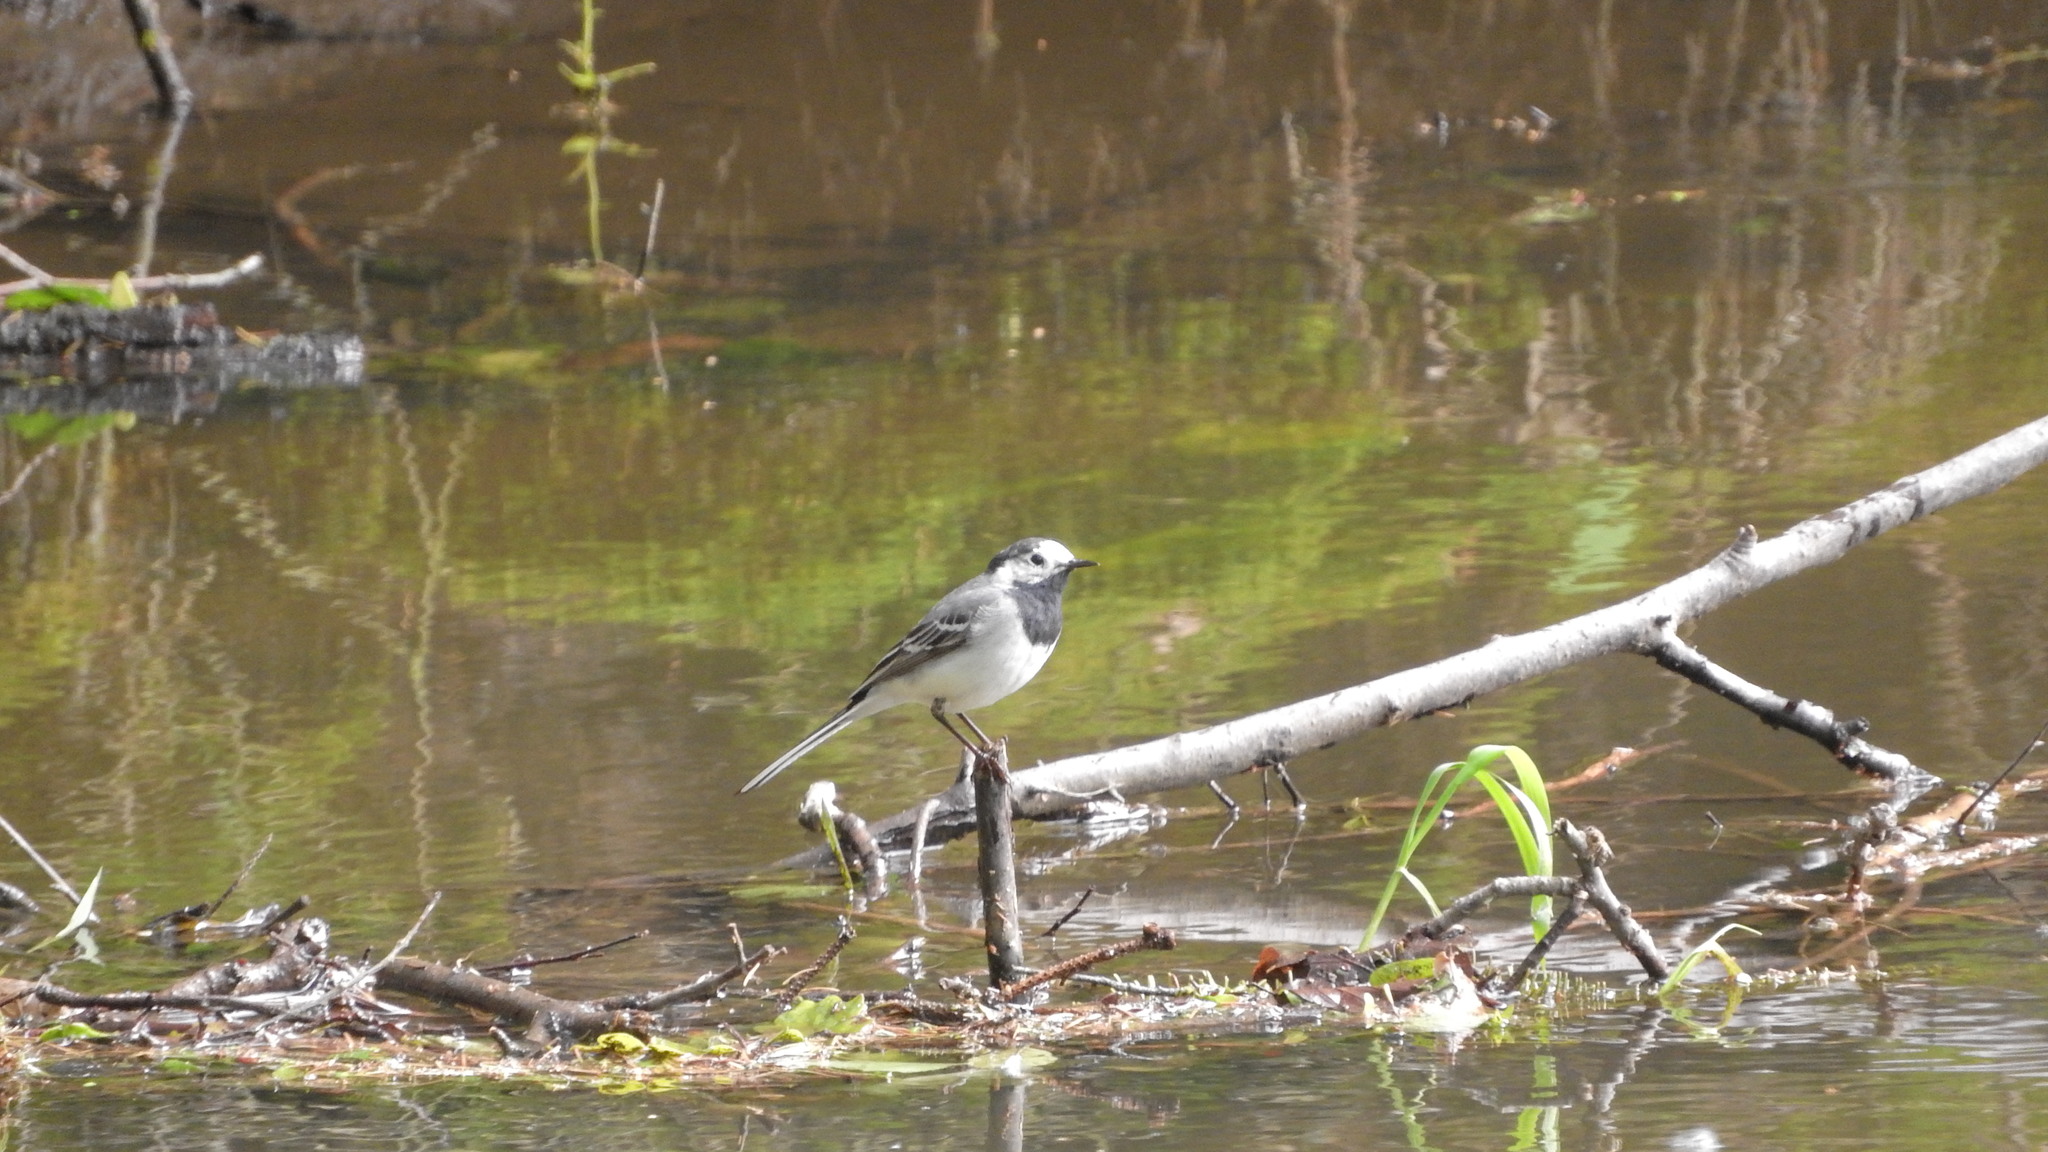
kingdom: Animalia
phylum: Chordata
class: Aves
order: Passeriformes
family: Motacillidae
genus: Motacilla
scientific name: Motacilla alba
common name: White wagtail
